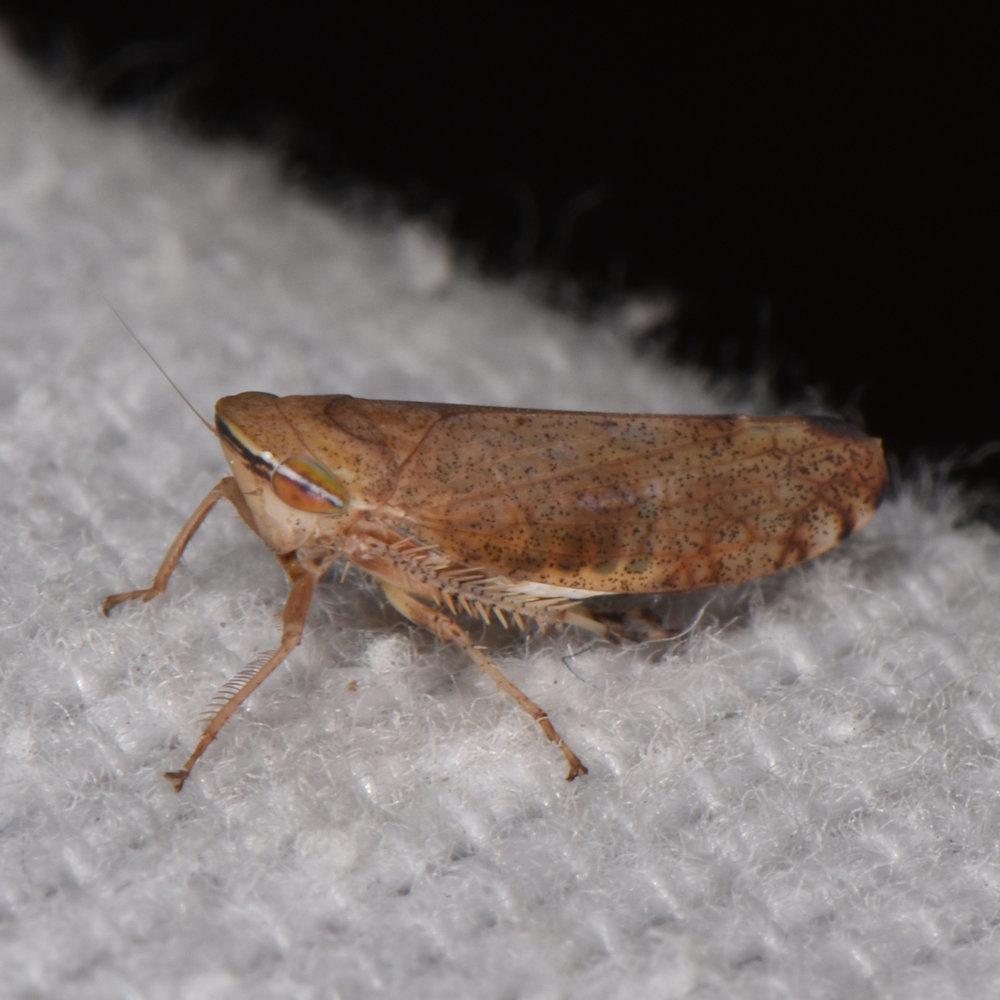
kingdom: Animalia
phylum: Arthropoda
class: Insecta
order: Hemiptera
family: Cicadellidae
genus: Fieberiella
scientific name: Fieberiella florii
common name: Flor’s leafhopper
